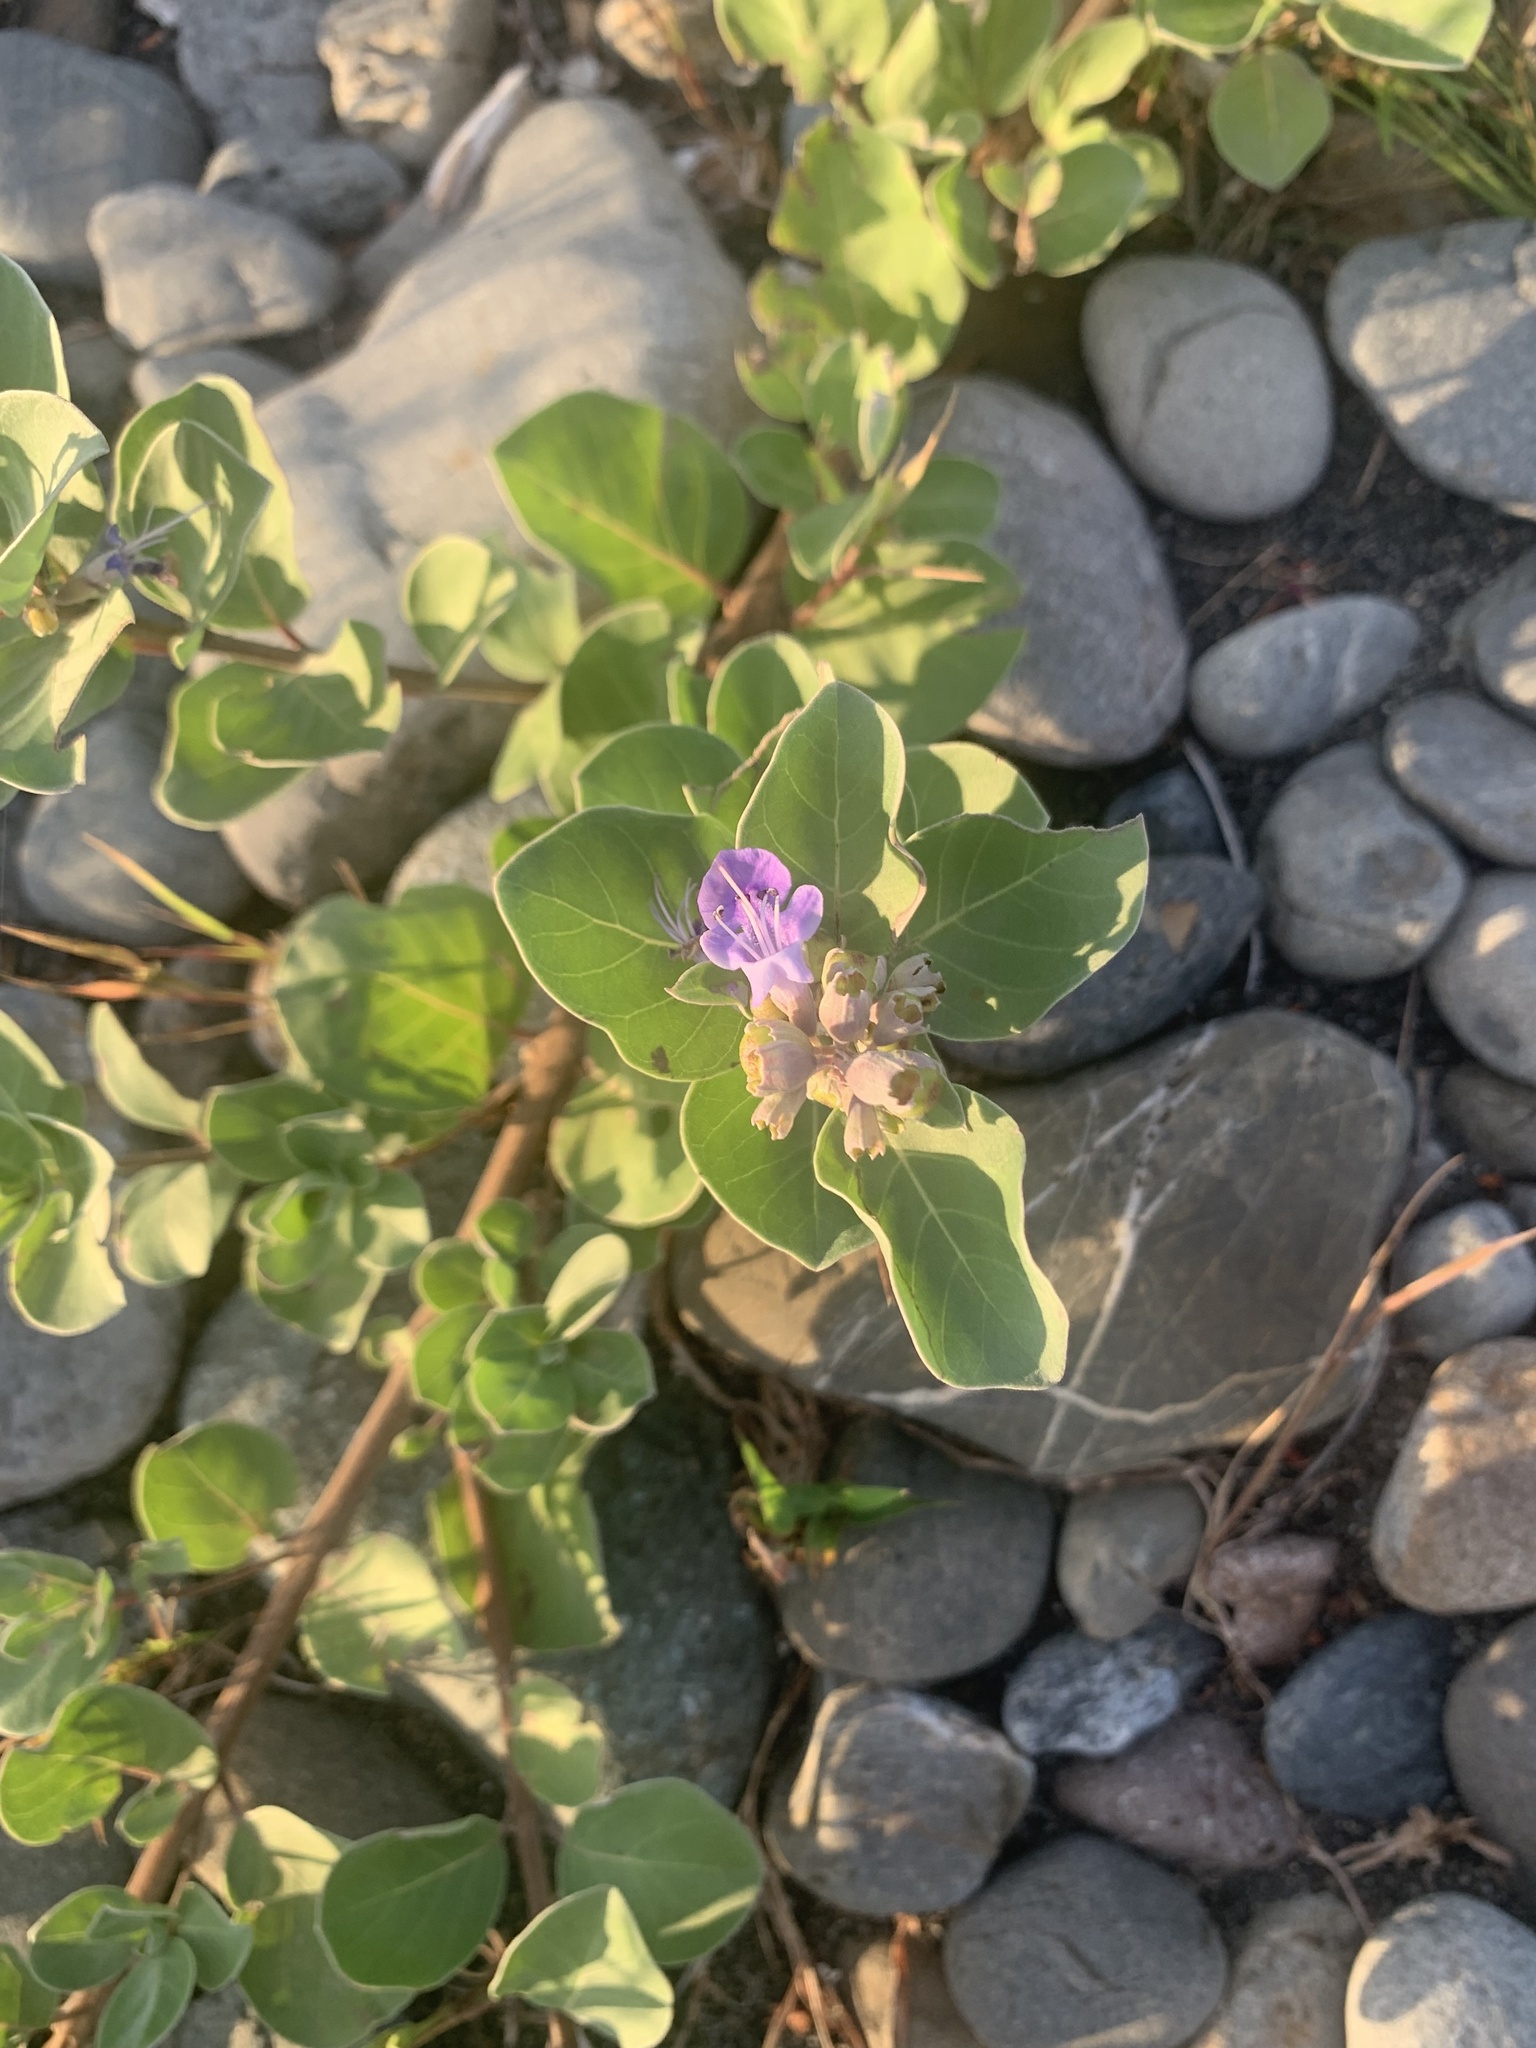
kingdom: Plantae
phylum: Tracheophyta
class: Magnoliopsida
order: Lamiales
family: Lamiaceae
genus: Vitex
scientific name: Vitex rotundifolia
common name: Beach vitex
